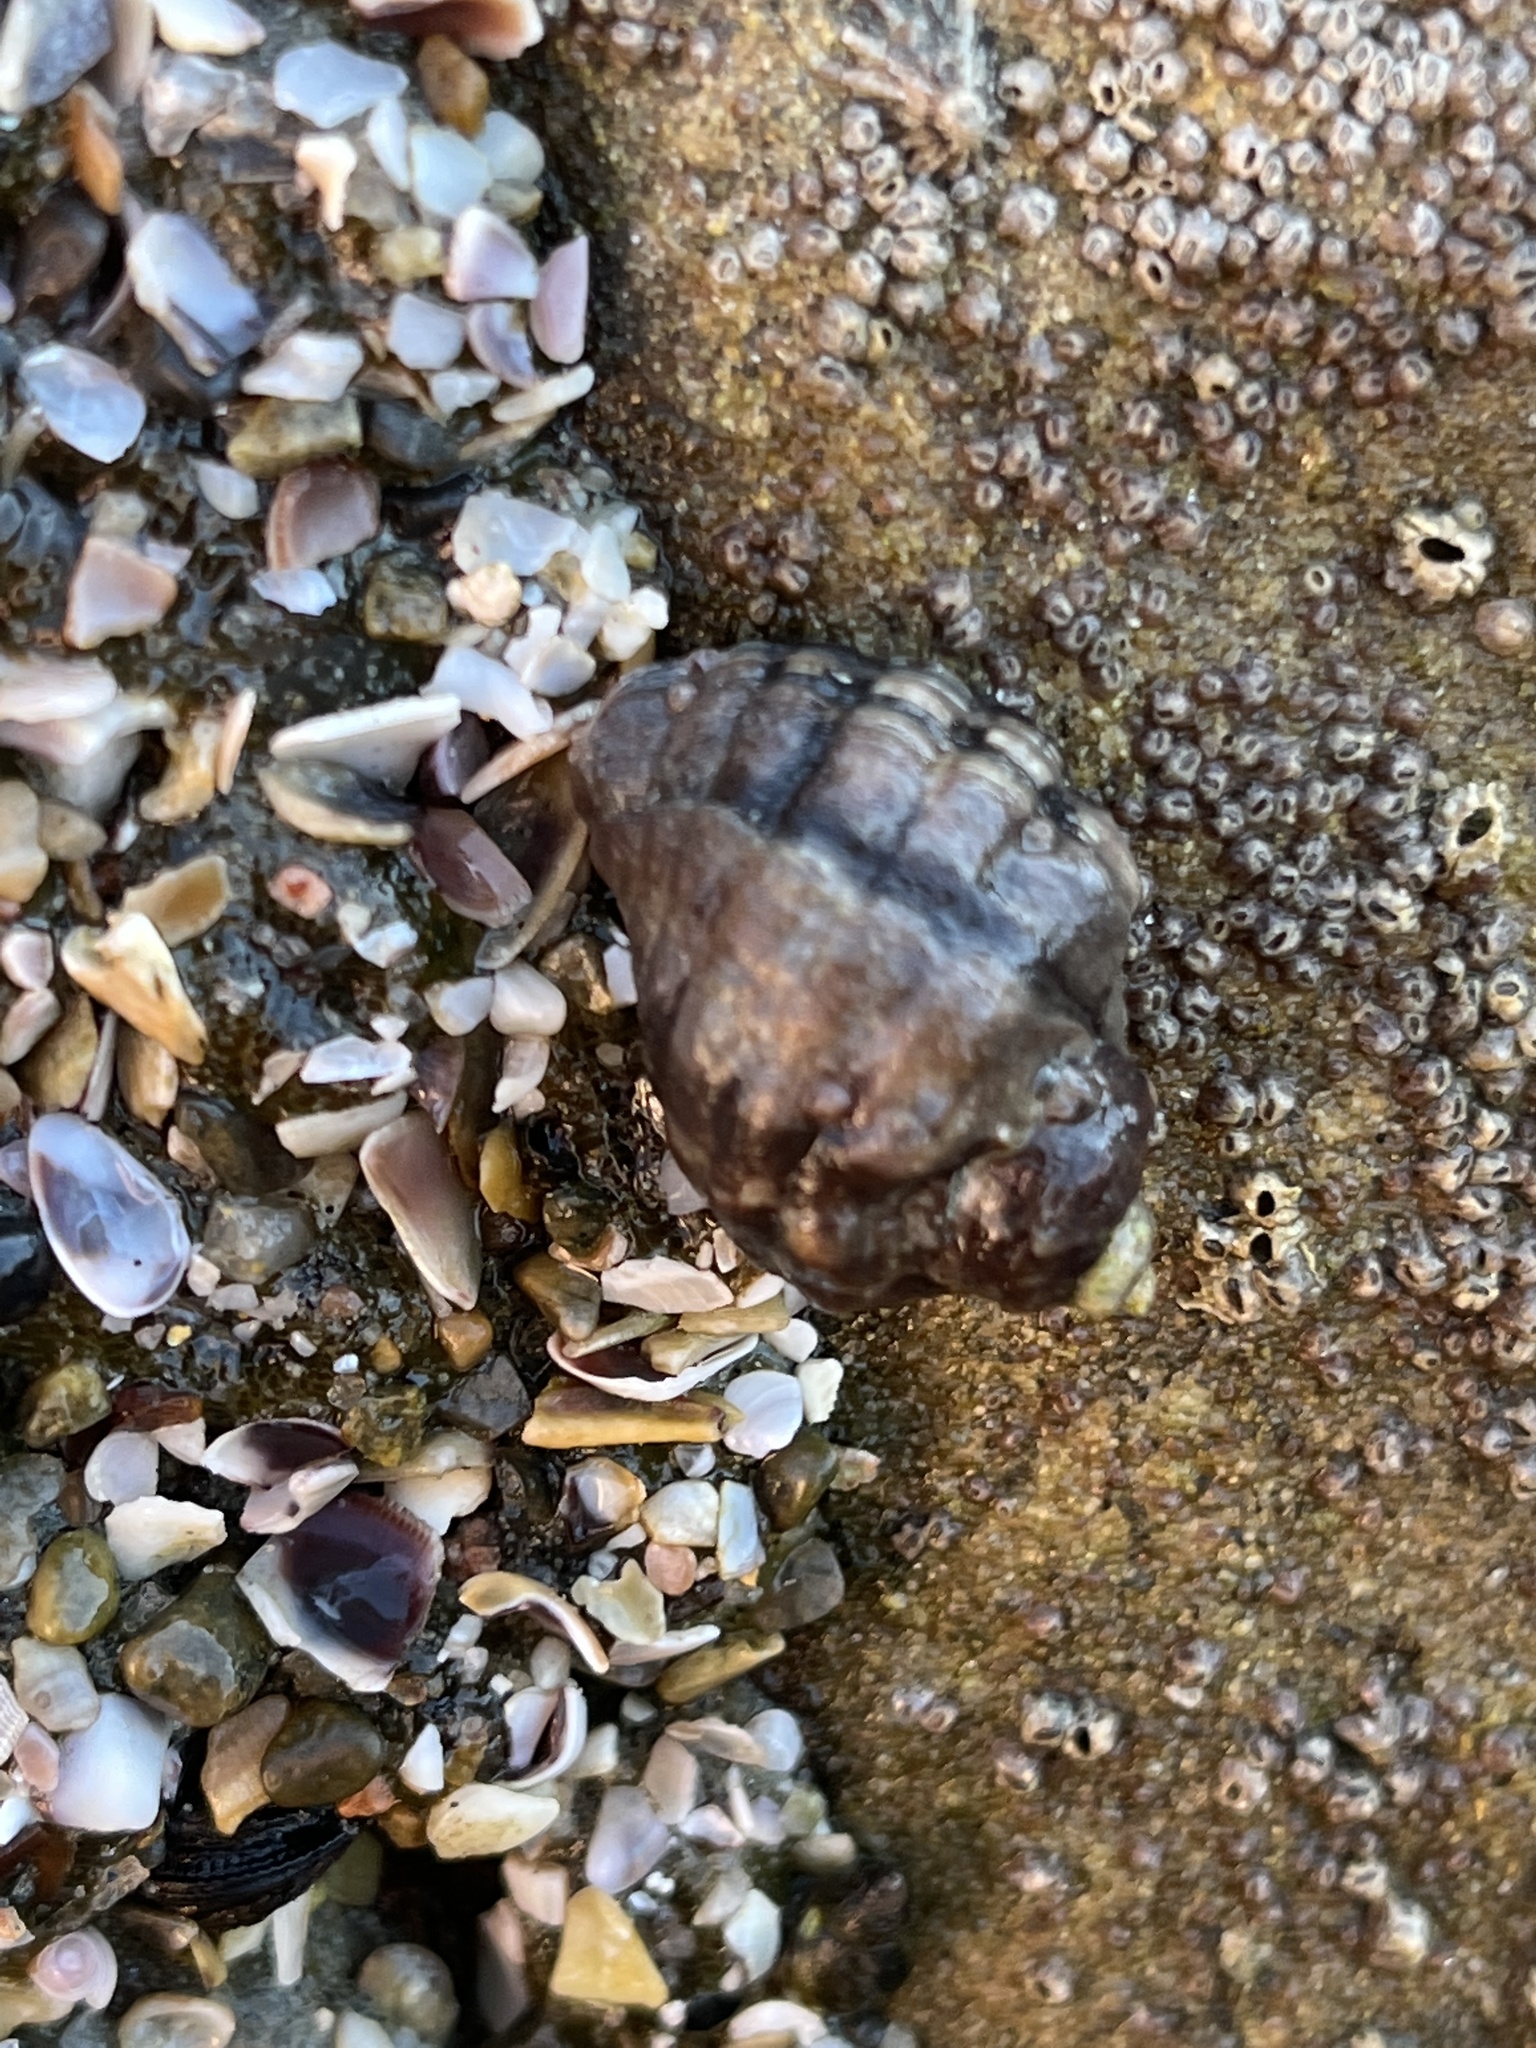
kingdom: Animalia
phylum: Mollusca
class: Gastropoda
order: Neogastropoda
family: Muricidae
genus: Mexacanthina
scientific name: Mexacanthina lugubris
